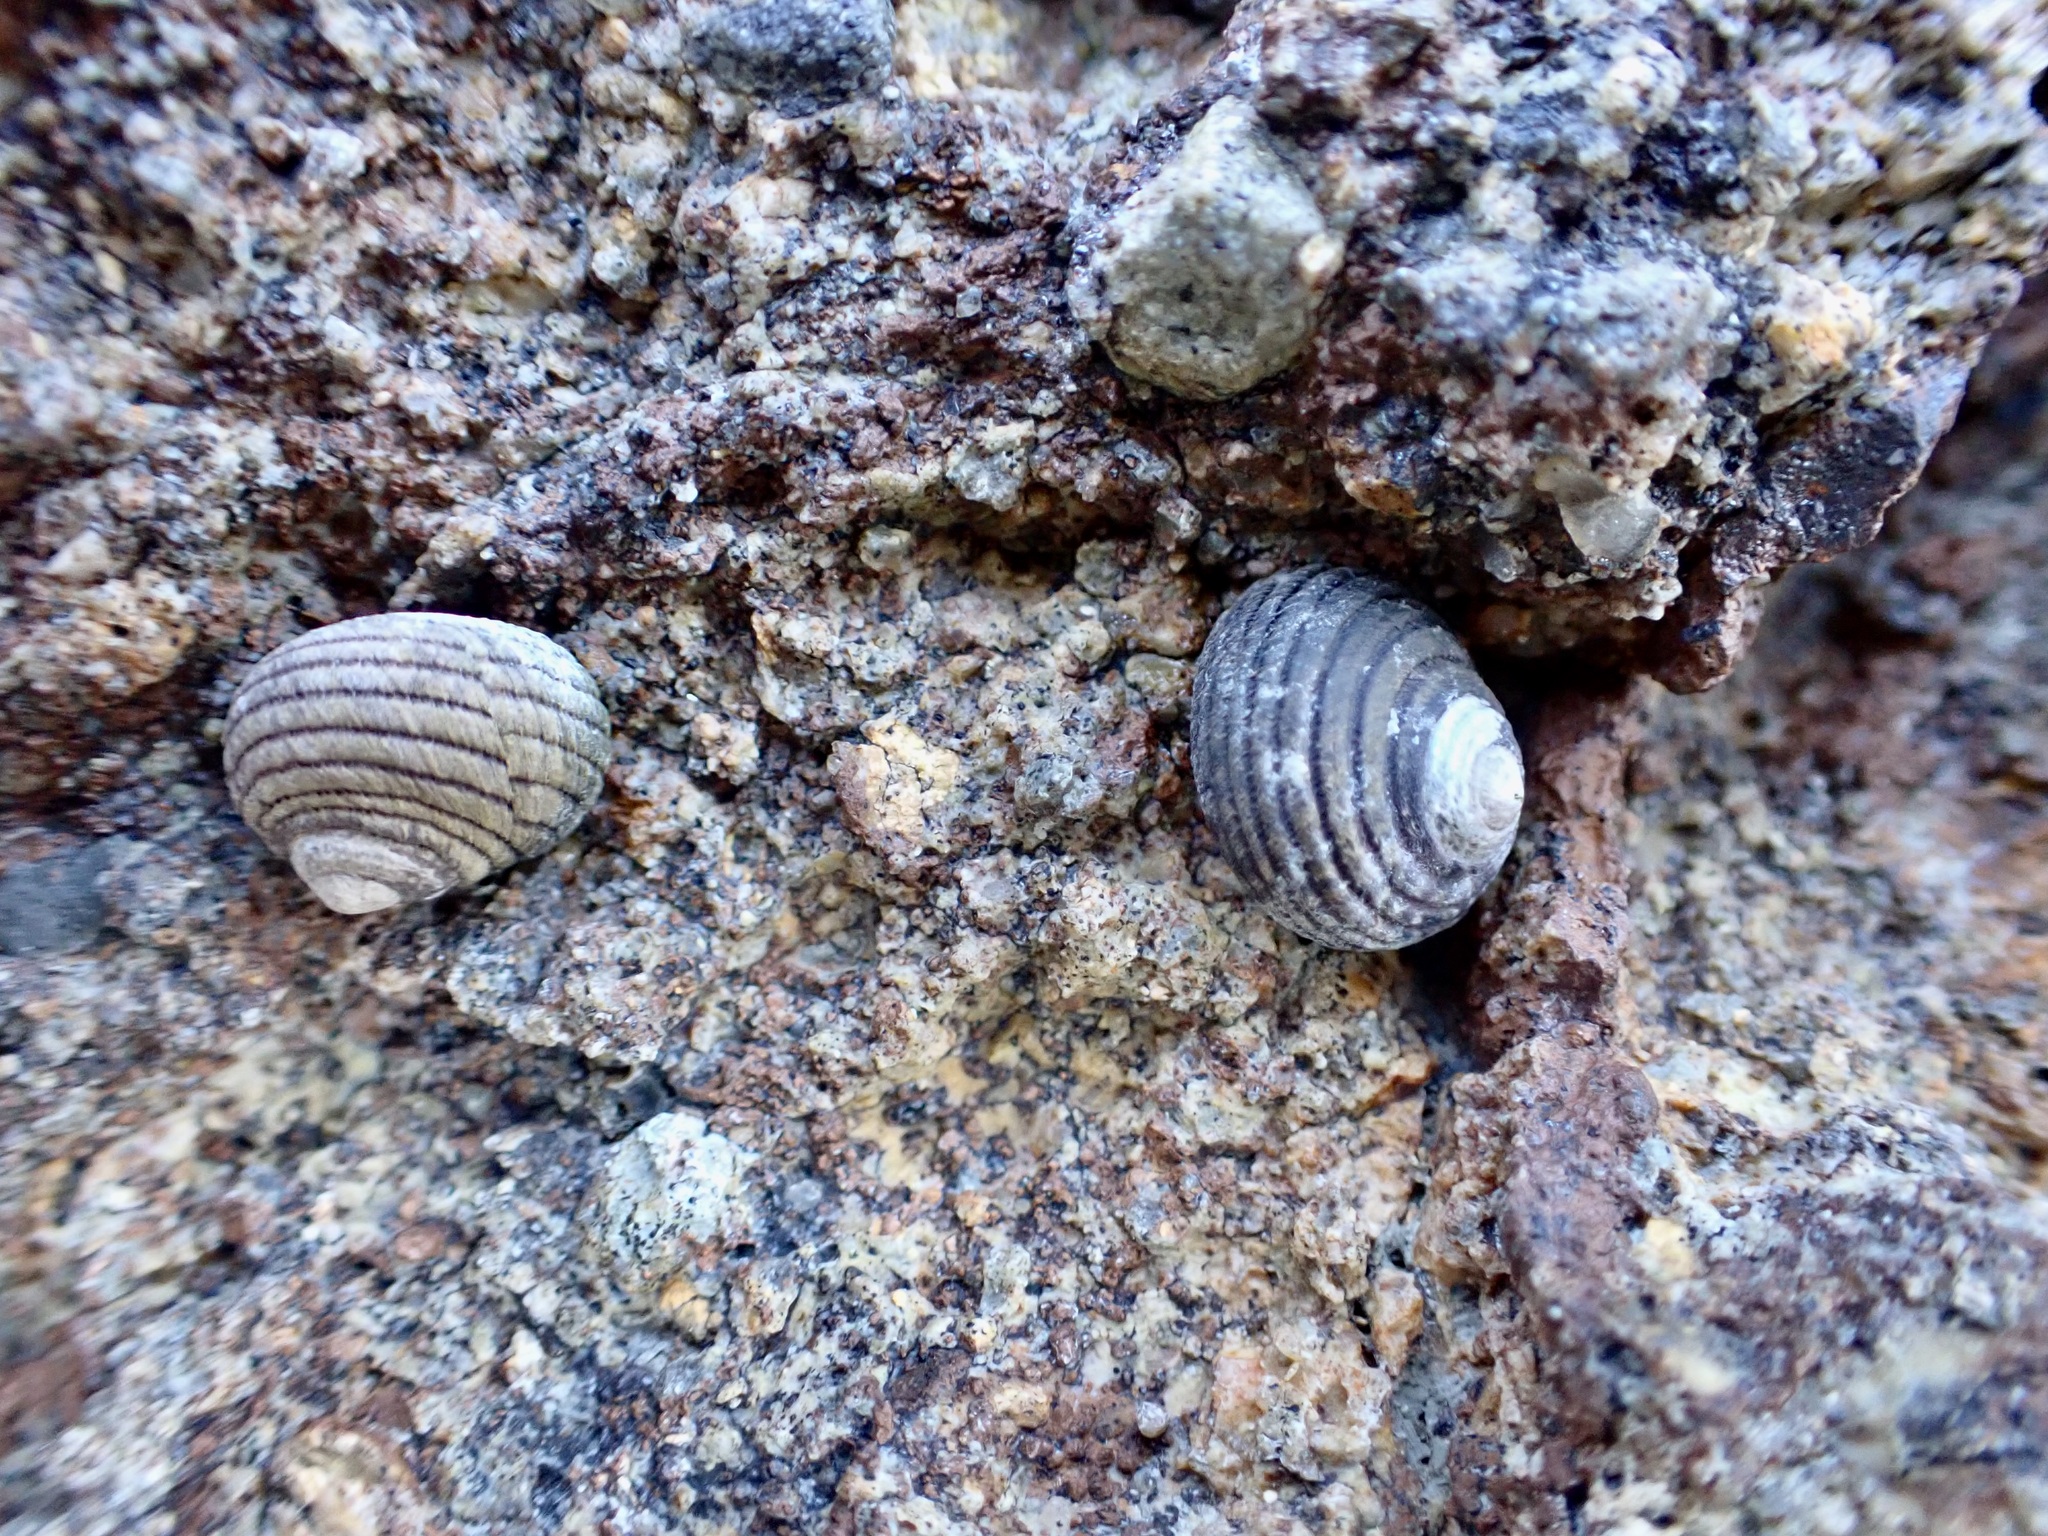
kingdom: Animalia
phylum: Mollusca
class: Gastropoda
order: Trochida
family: Trochidae
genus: Diloma
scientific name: Diloma aethiops
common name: Scorched monodont
